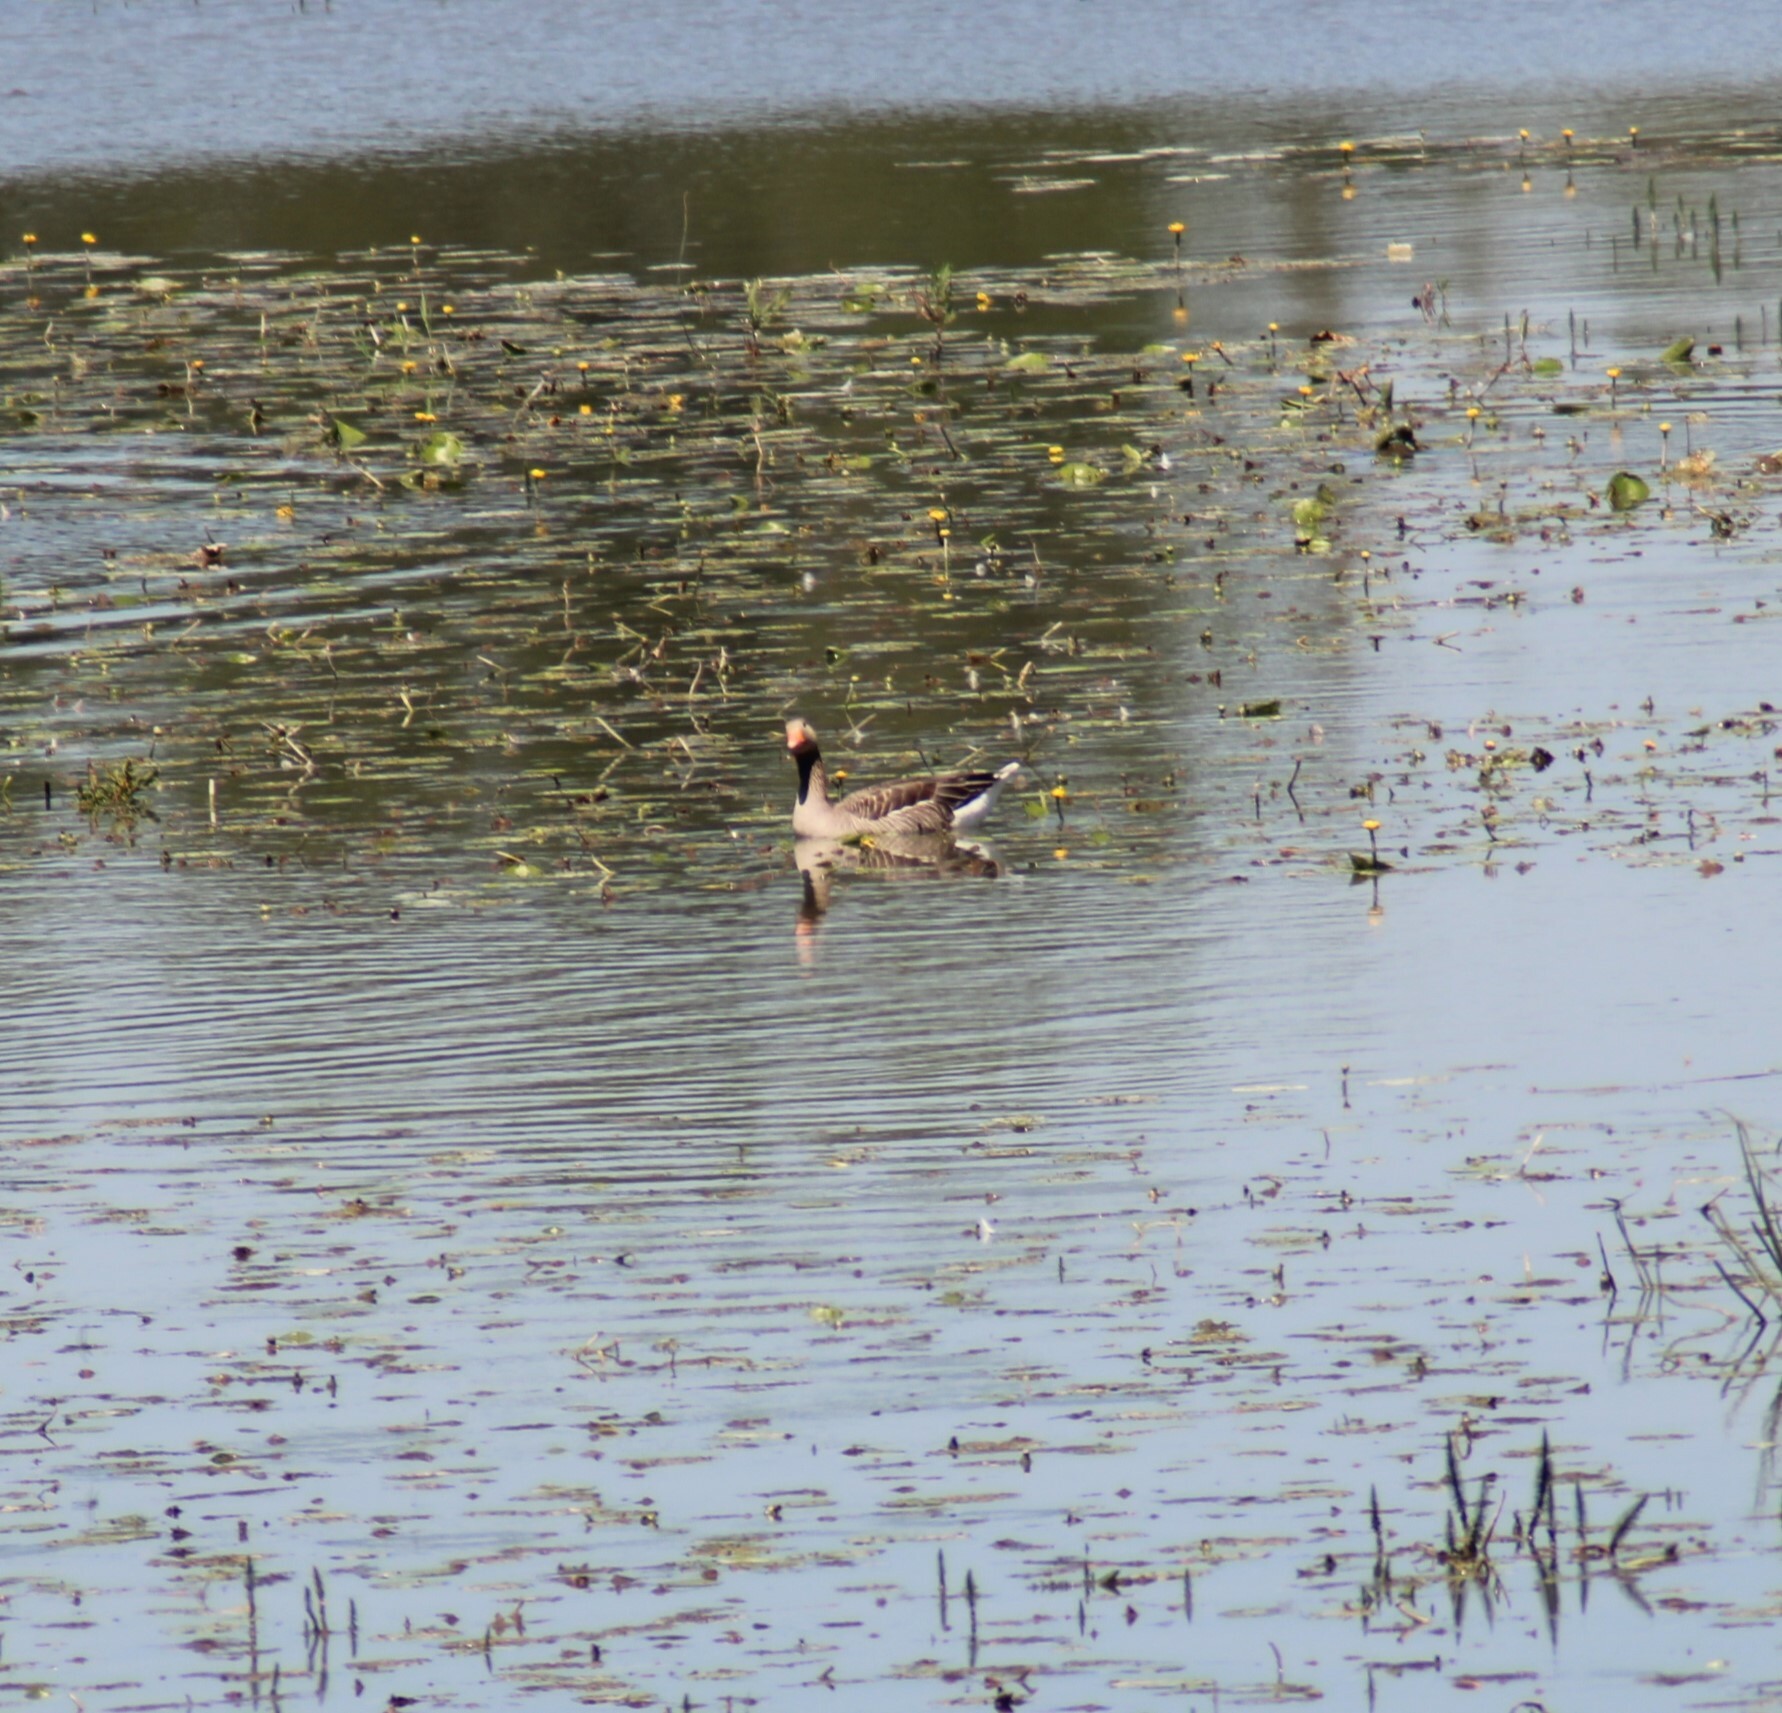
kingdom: Animalia
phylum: Chordata
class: Aves
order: Anseriformes
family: Anatidae
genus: Anser
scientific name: Anser anser
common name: Greylag goose
